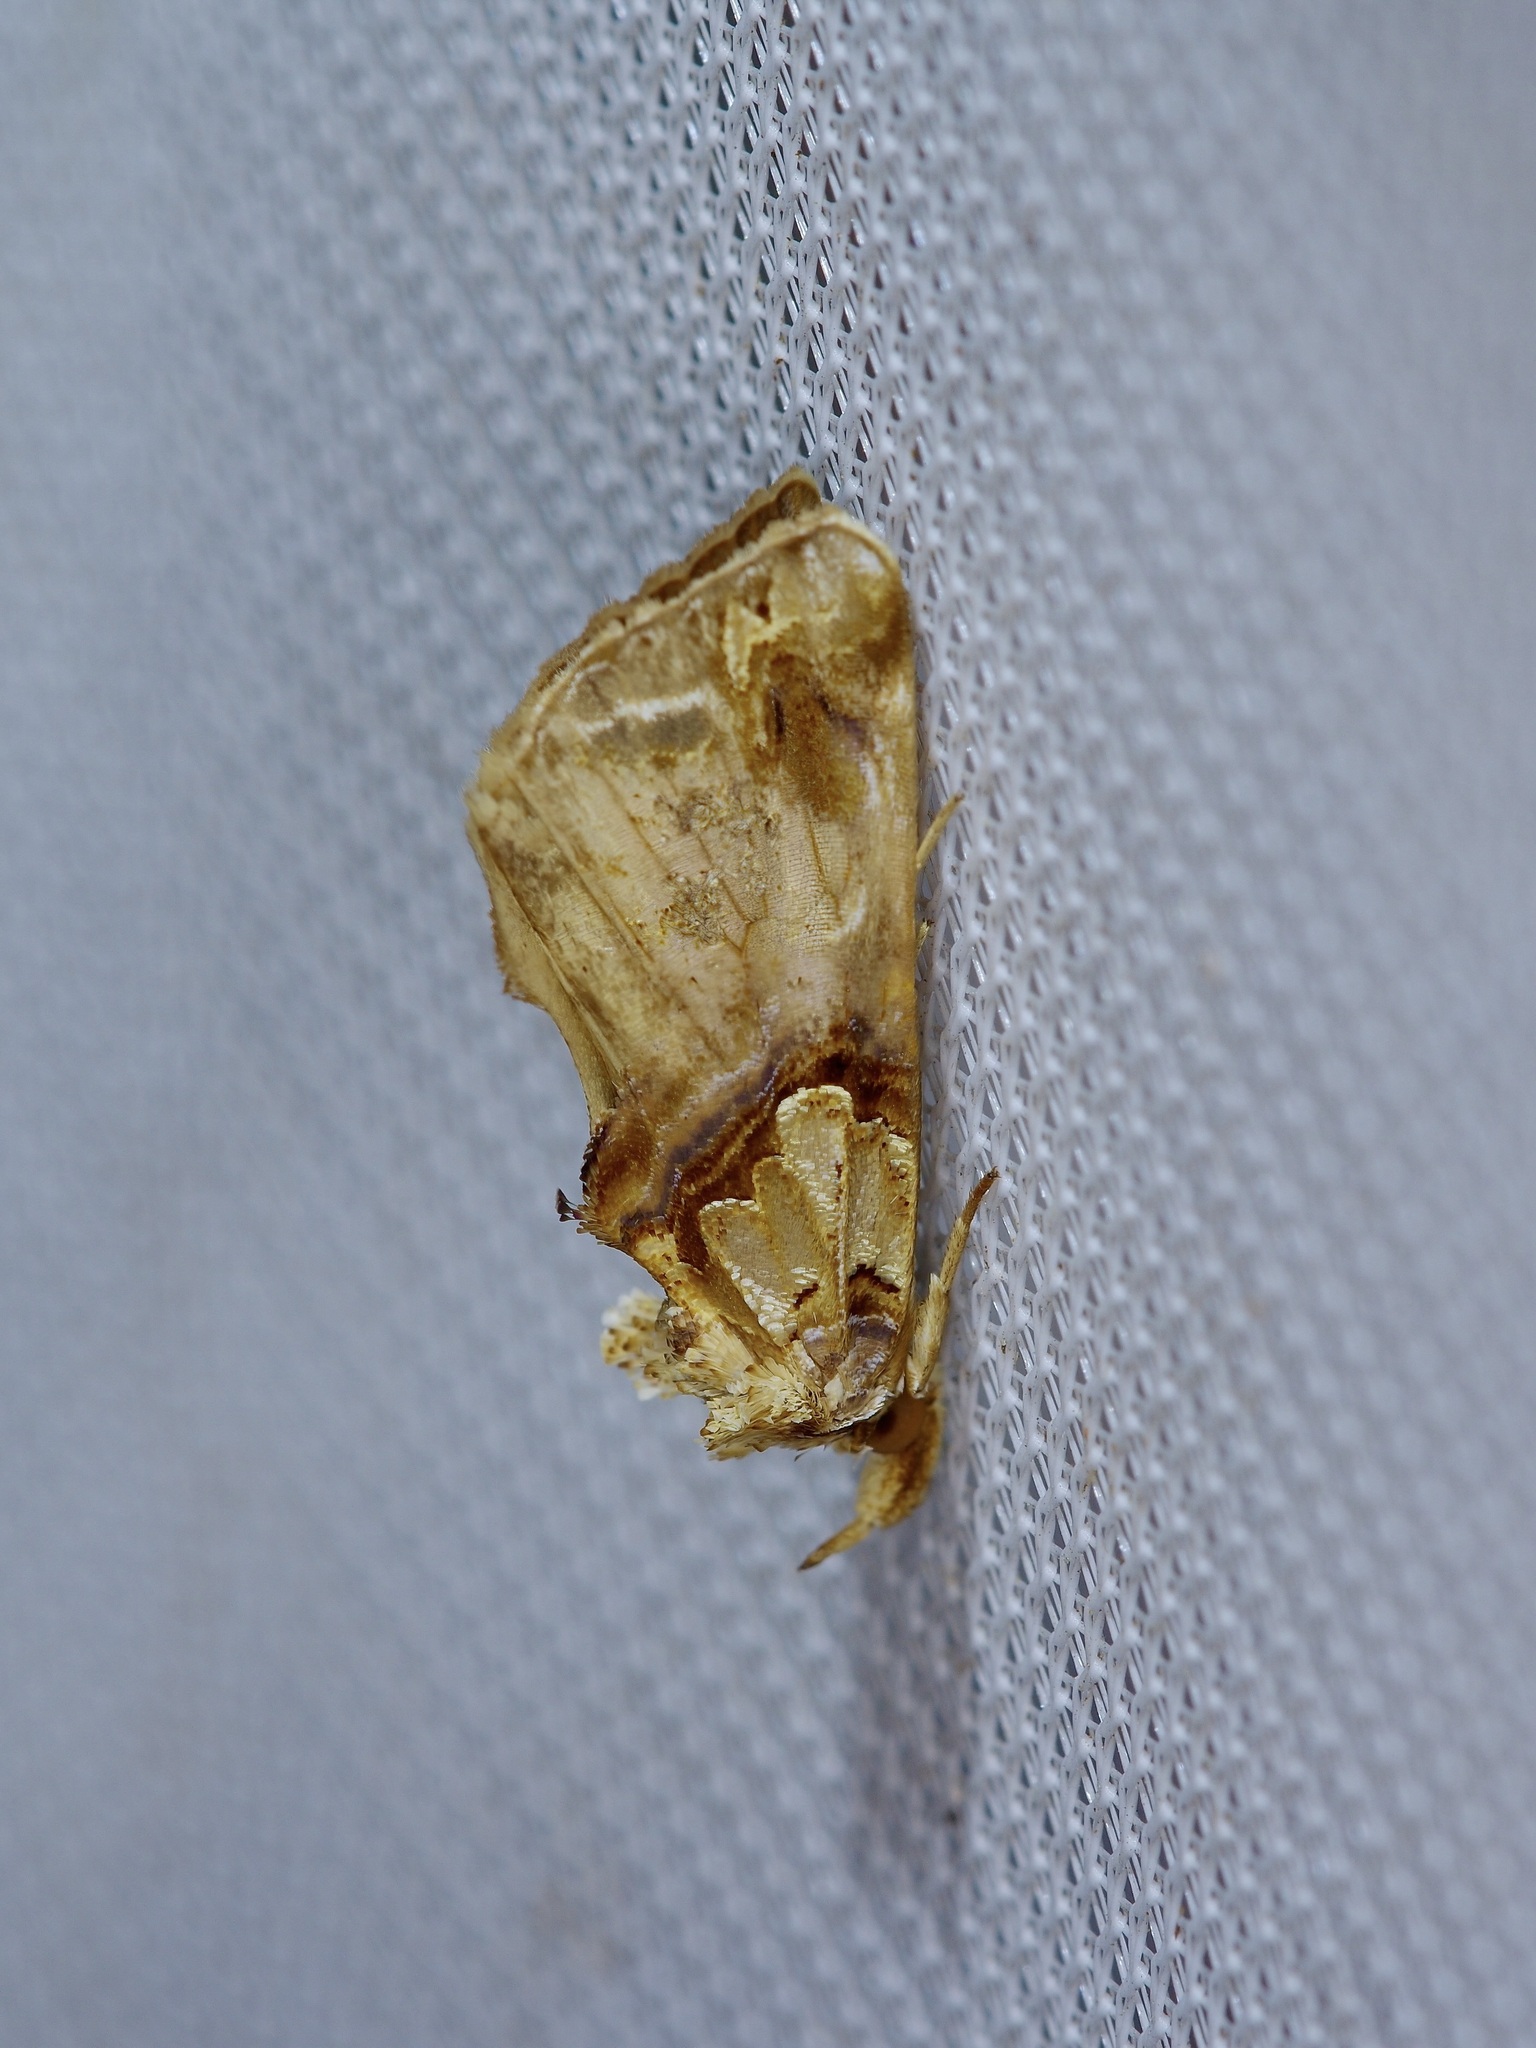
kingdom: Animalia
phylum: Arthropoda
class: Insecta
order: Lepidoptera
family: Erebidae
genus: Plusiodonta
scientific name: Plusiodonta compressipalpis
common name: Moonseed moth
